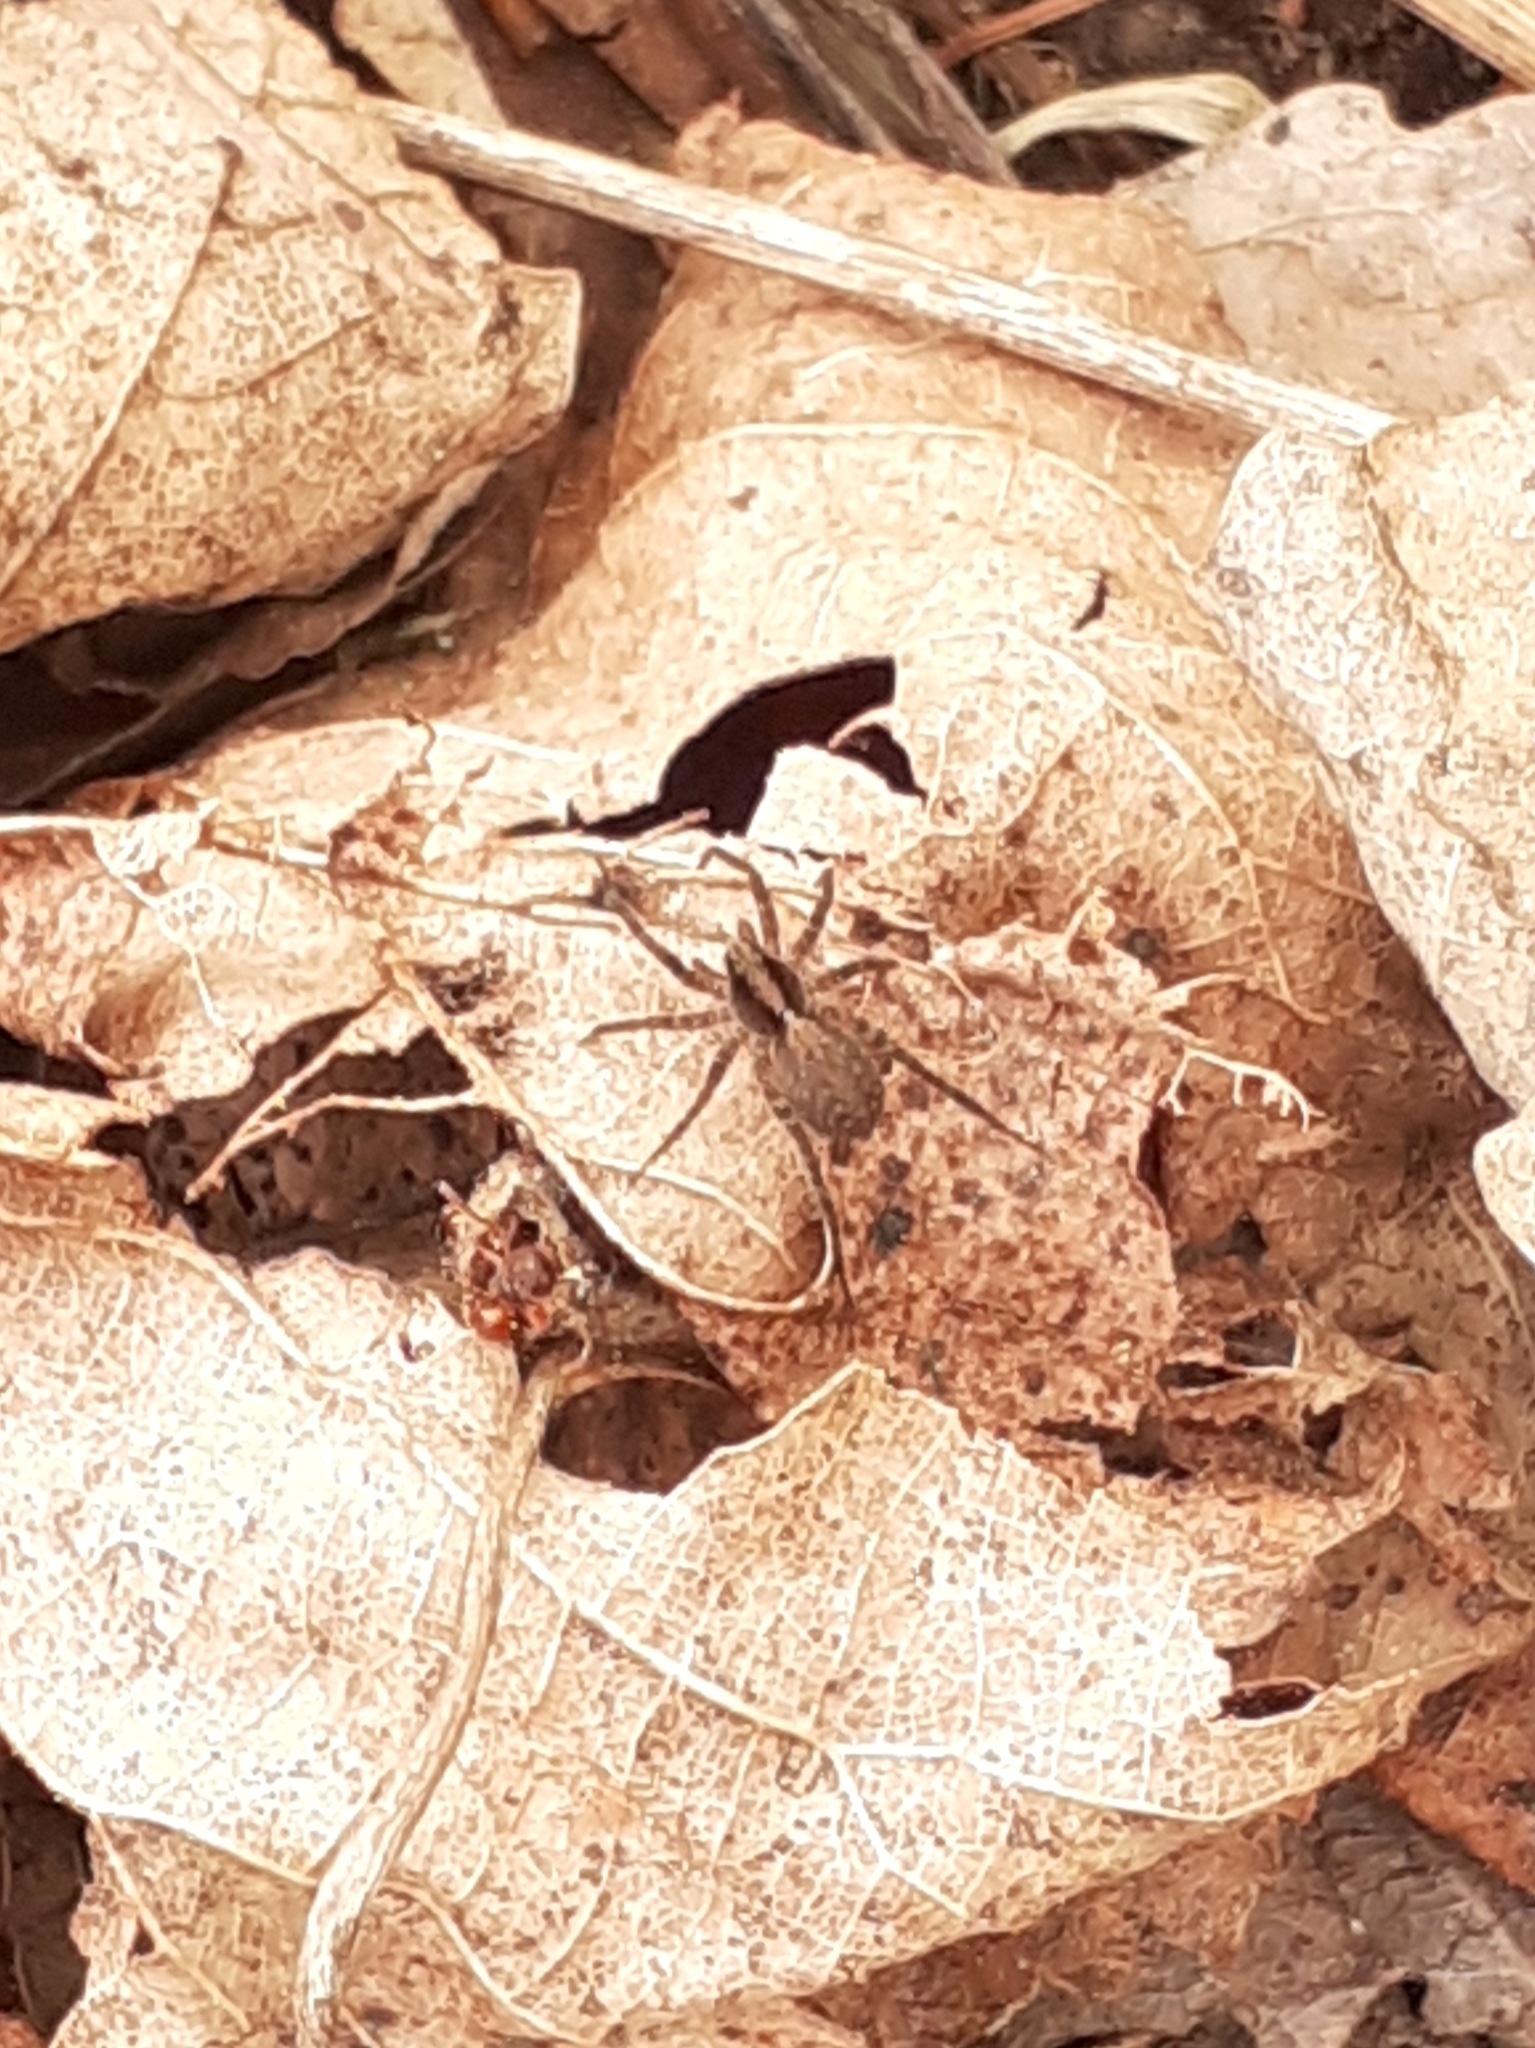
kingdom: Animalia
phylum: Arthropoda
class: Arachnida
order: Araneae
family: Lycosidae
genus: Pardosa
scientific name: Pardosa
